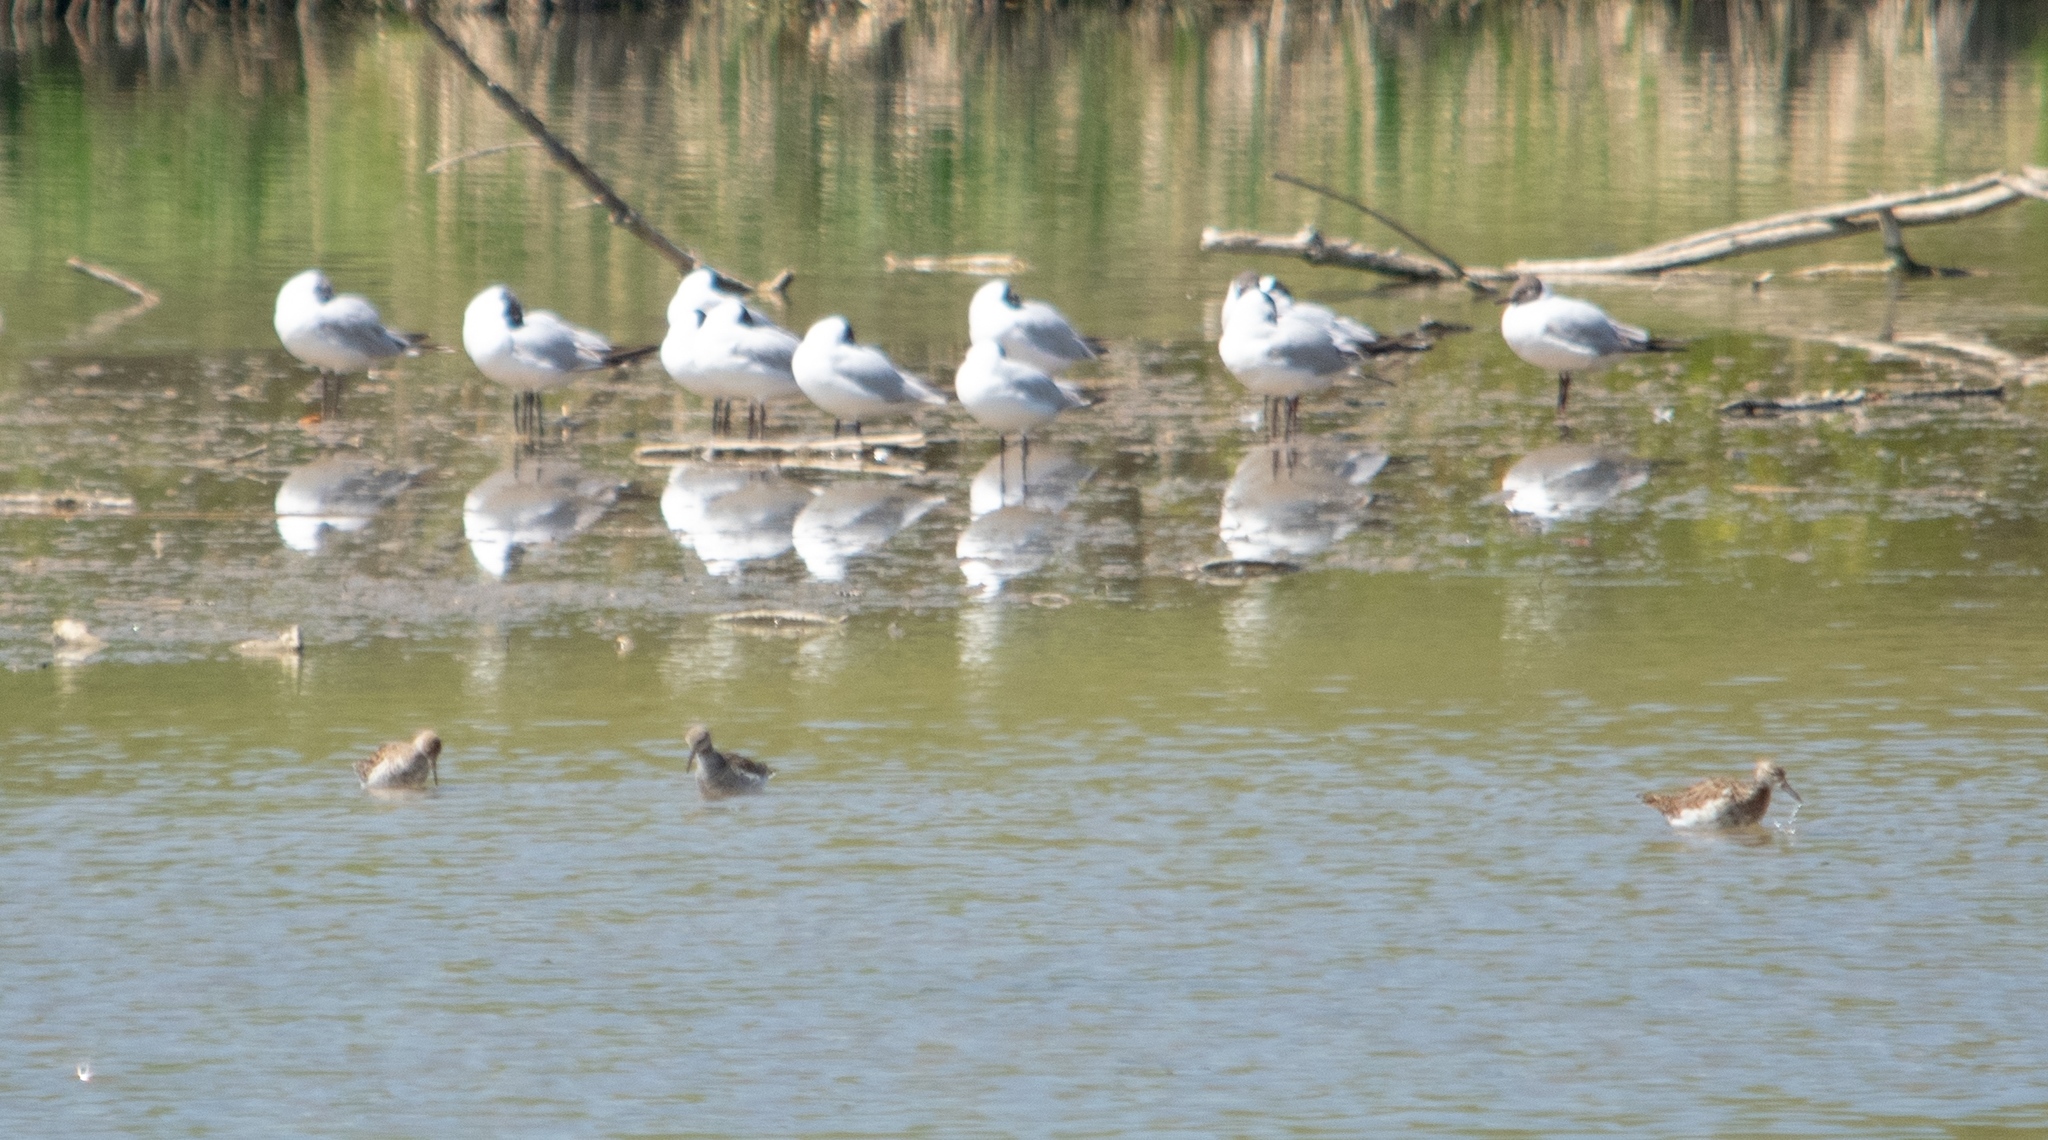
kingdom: Animalia
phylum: Chordata
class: Aves
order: Charadriiformes
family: Laridae
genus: Chroicocephalus
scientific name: Chroicocephalus ridibundus
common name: Black-headed gull
